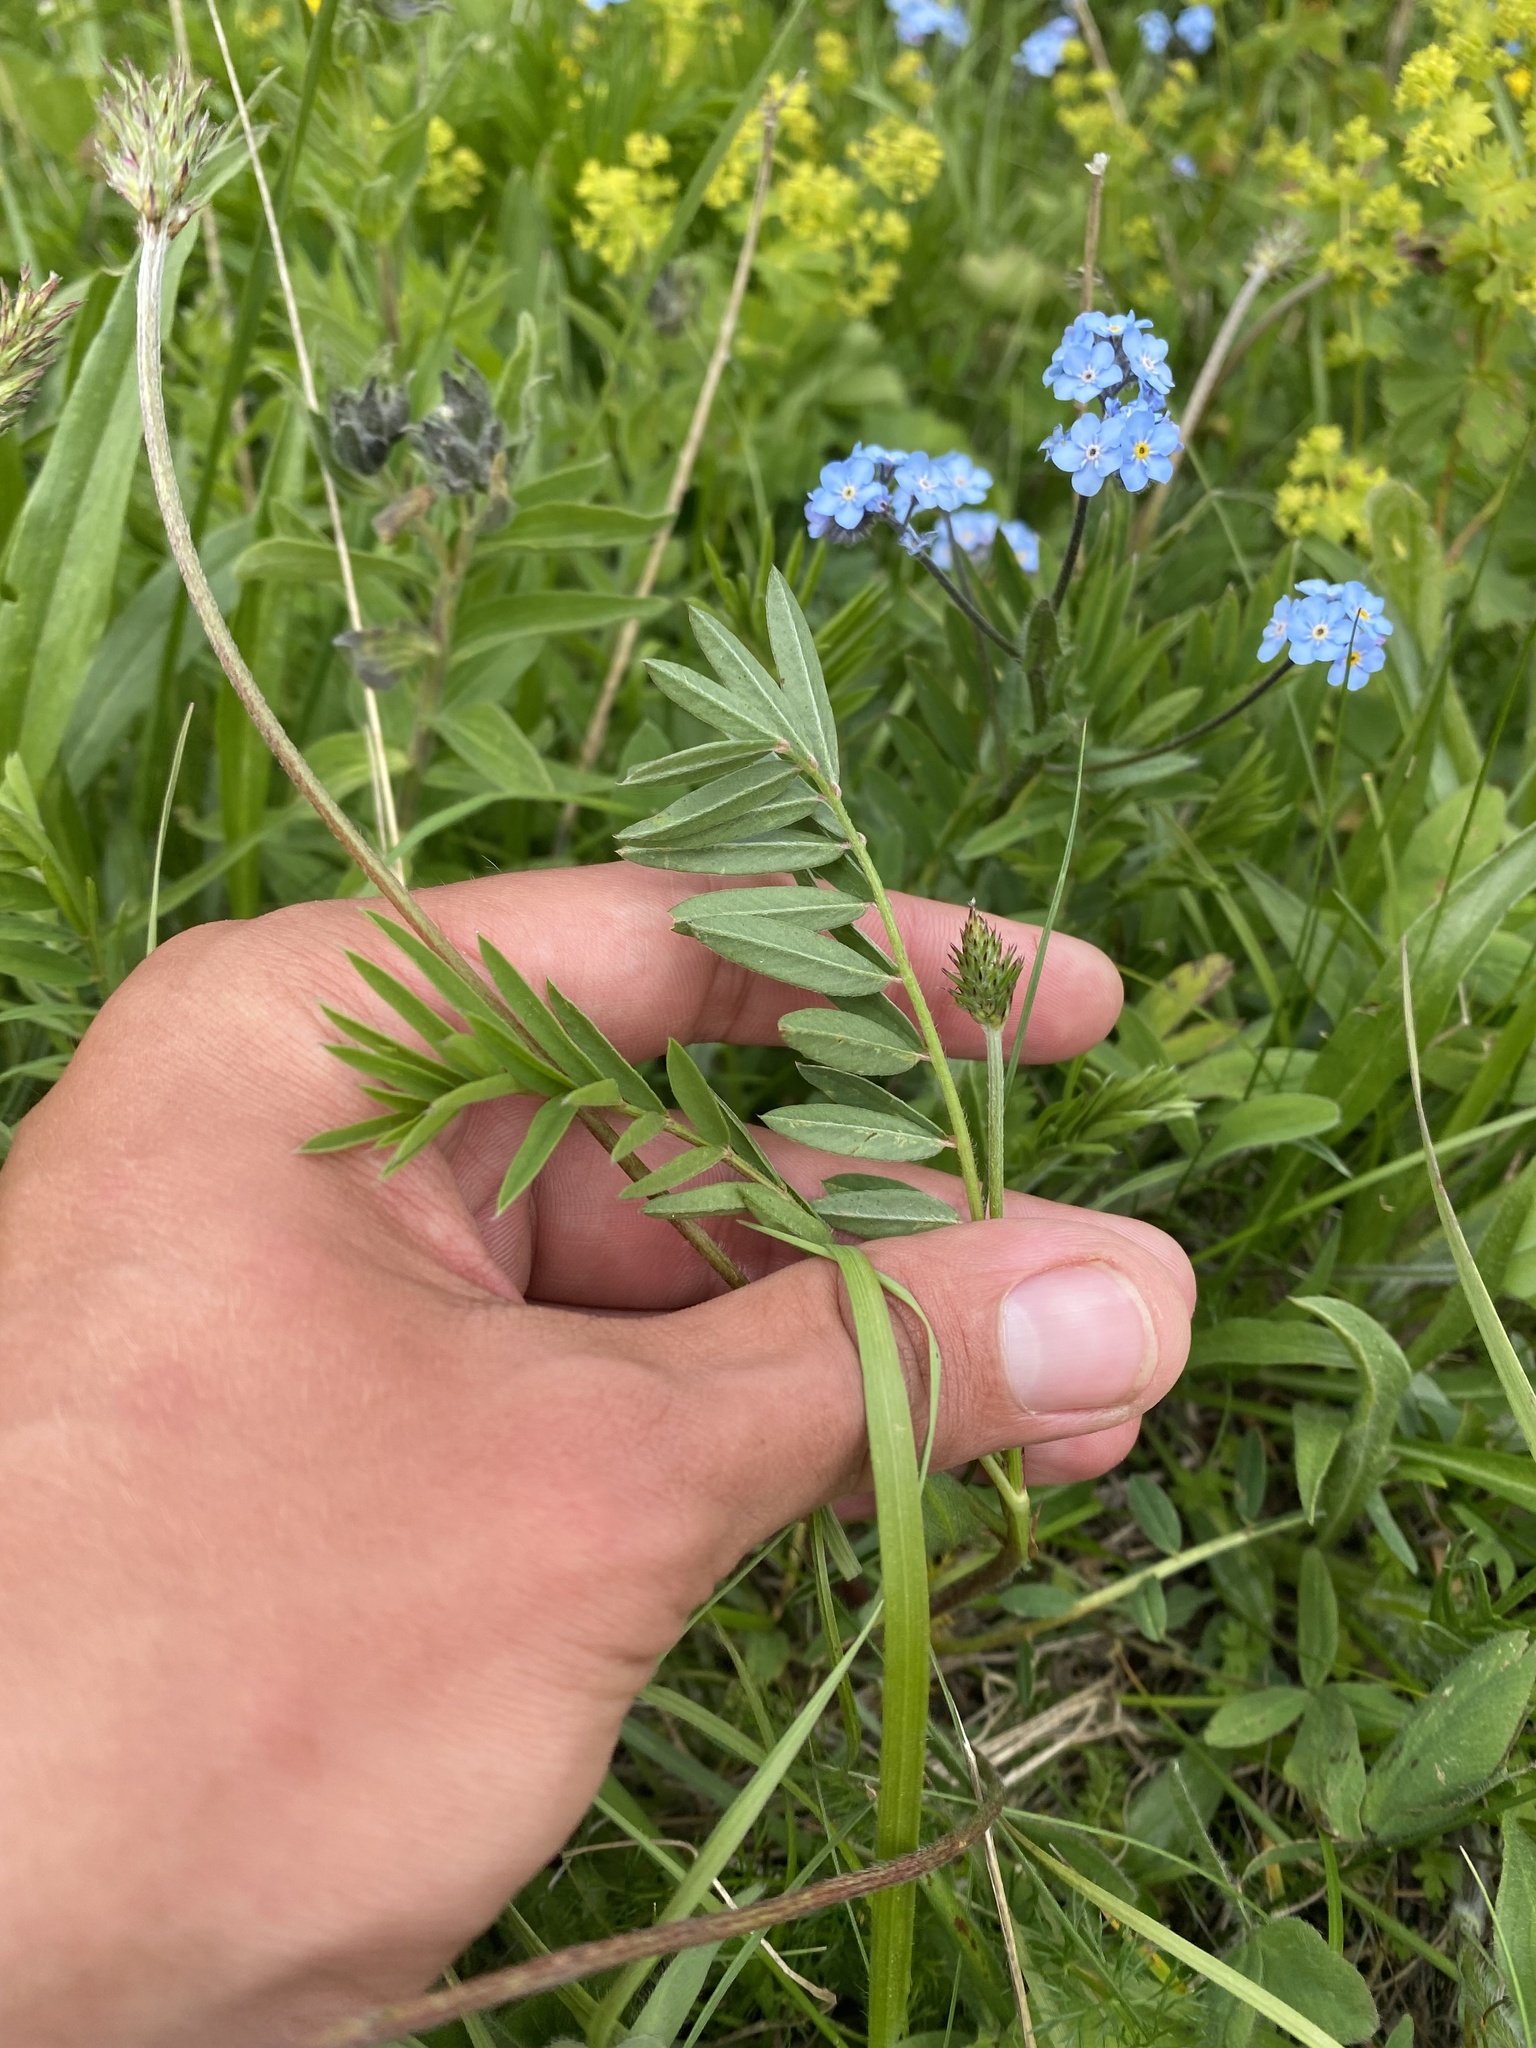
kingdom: Plantae
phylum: Tracheophyta
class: Magnoliopsida
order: Fabales
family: Fabaceae
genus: Onobrychis
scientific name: Onobrychis biebersteinii
